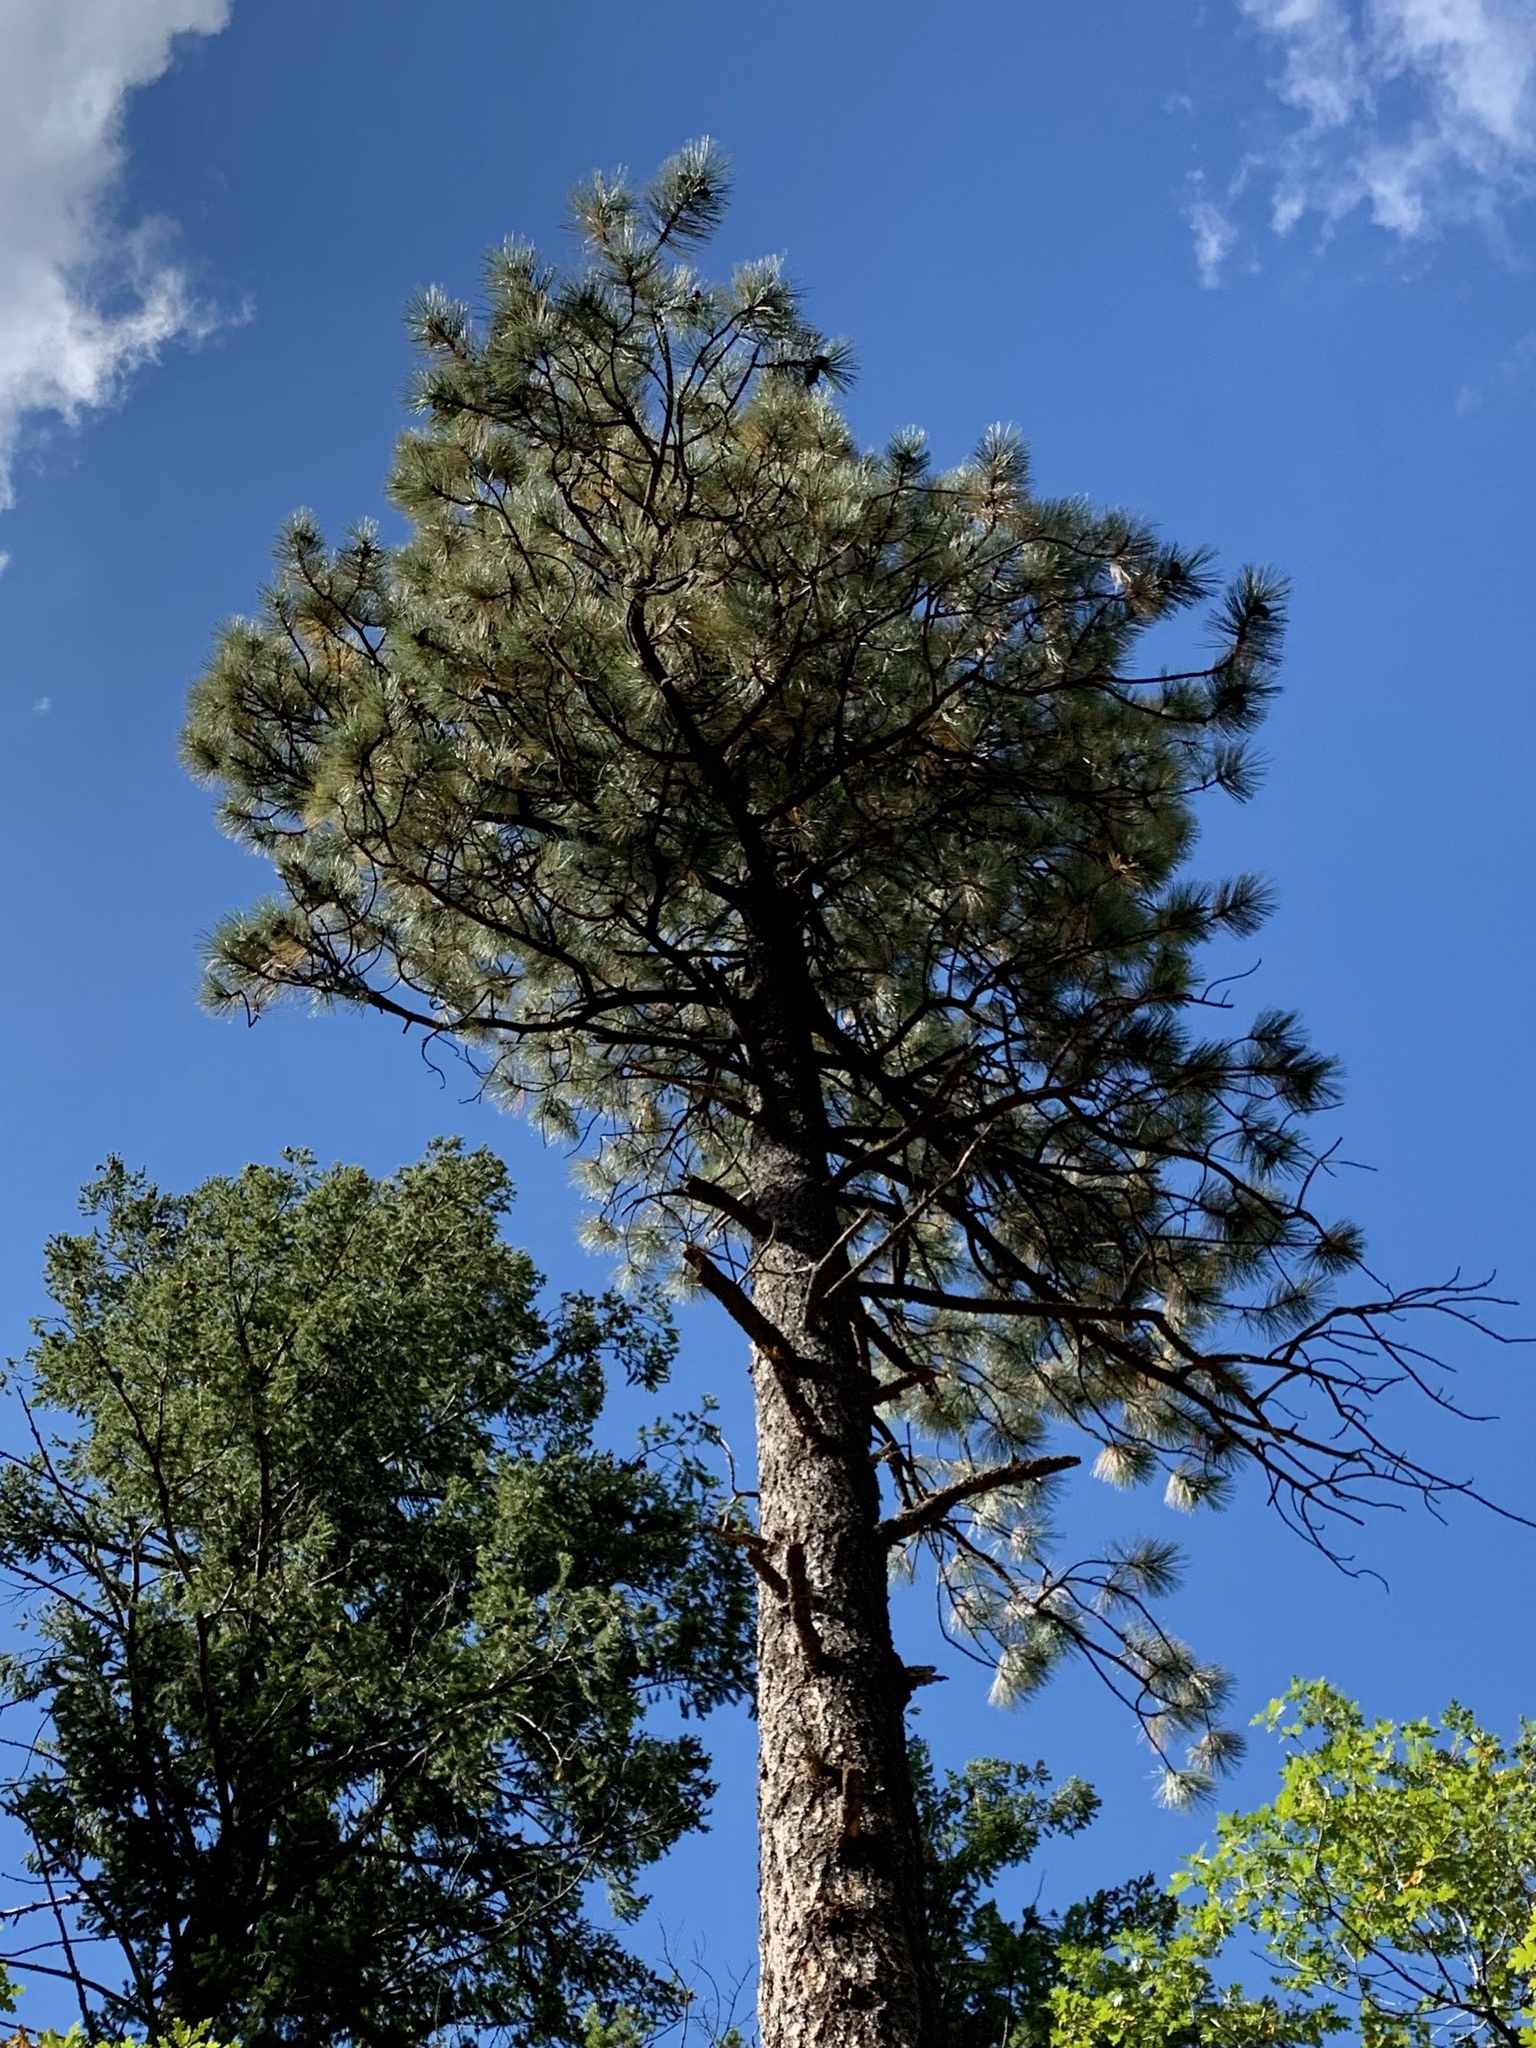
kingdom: Plantae
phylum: Tracheophyta
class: Pinopsida
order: Pinales
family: Pinaceae
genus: Pinus
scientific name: Pinus ponderosa
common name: Western yellow-pine
